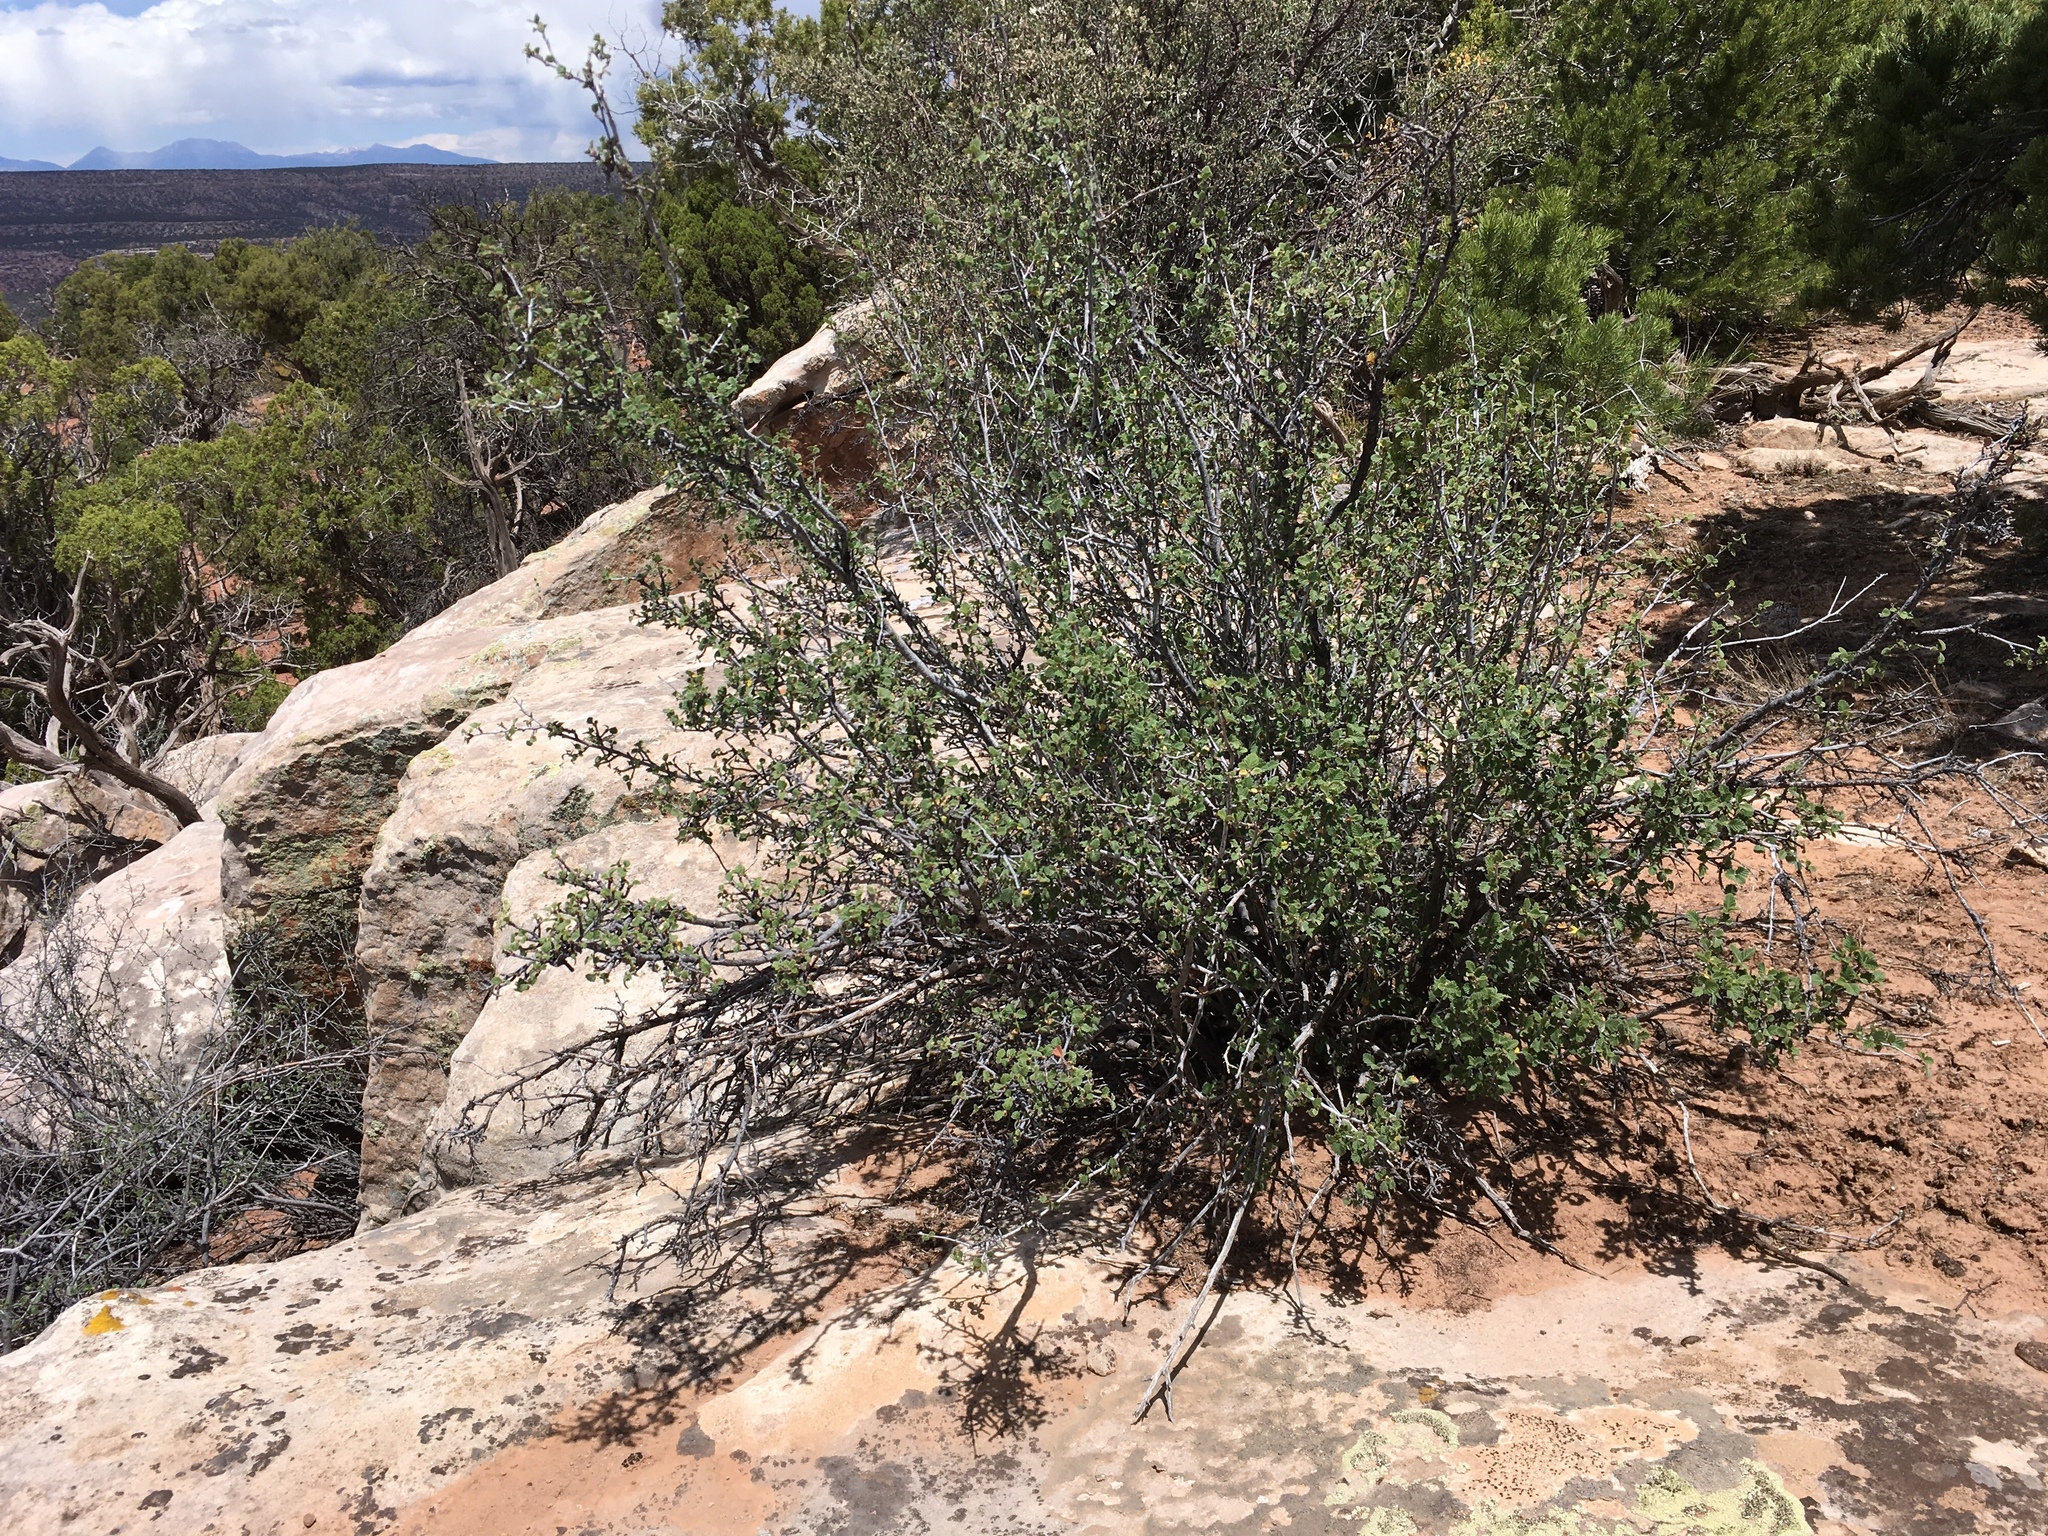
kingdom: Plantae
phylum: Tracheophyta
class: Magnoliopsida
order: Rosales
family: Rosaceae
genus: Cercocarpus
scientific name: Cercocarpus montanus
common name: Alder-leaf cercocarpus
